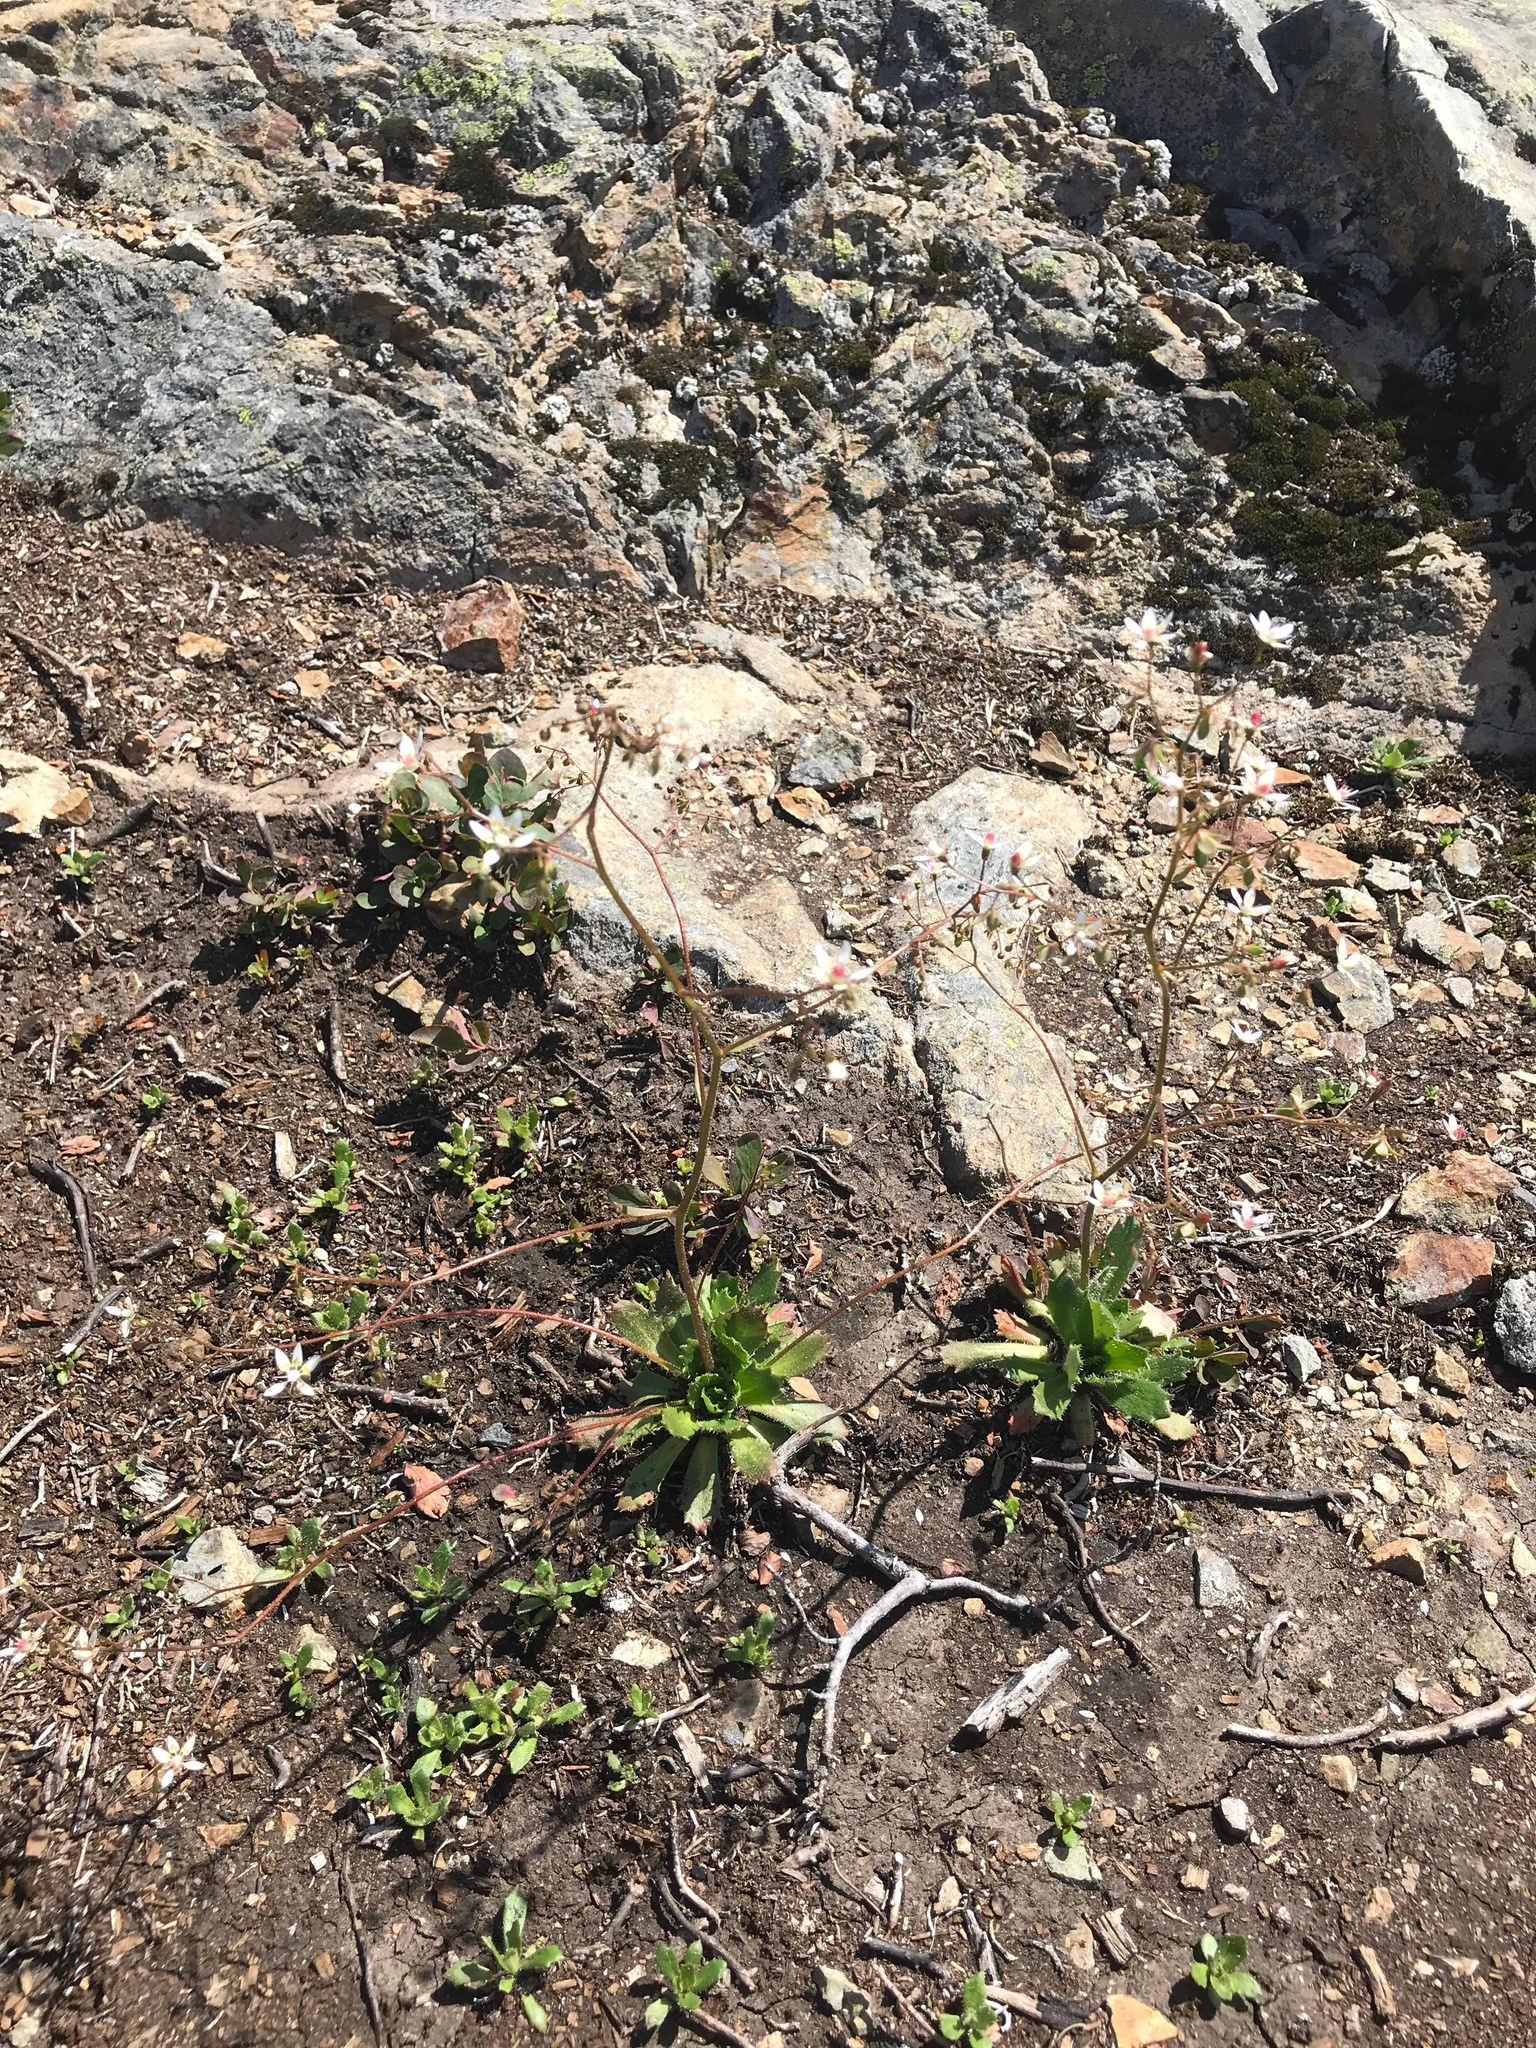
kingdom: Plantae
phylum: Tracheophyta
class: Magnoliopsida
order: Saxifragales
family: Saxifragaceae
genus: Micranthes
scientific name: Micranthes ferruginea
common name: Rusty saxifrage
